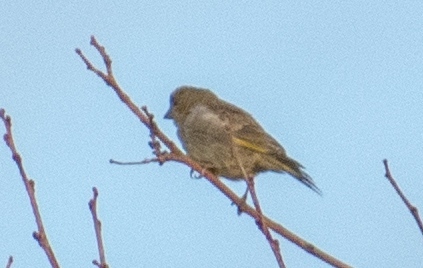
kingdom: Plantae
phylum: Tracheophyta
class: Liliopsida
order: Poales
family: Poaceae
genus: Chloris
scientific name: Chloris chloris
